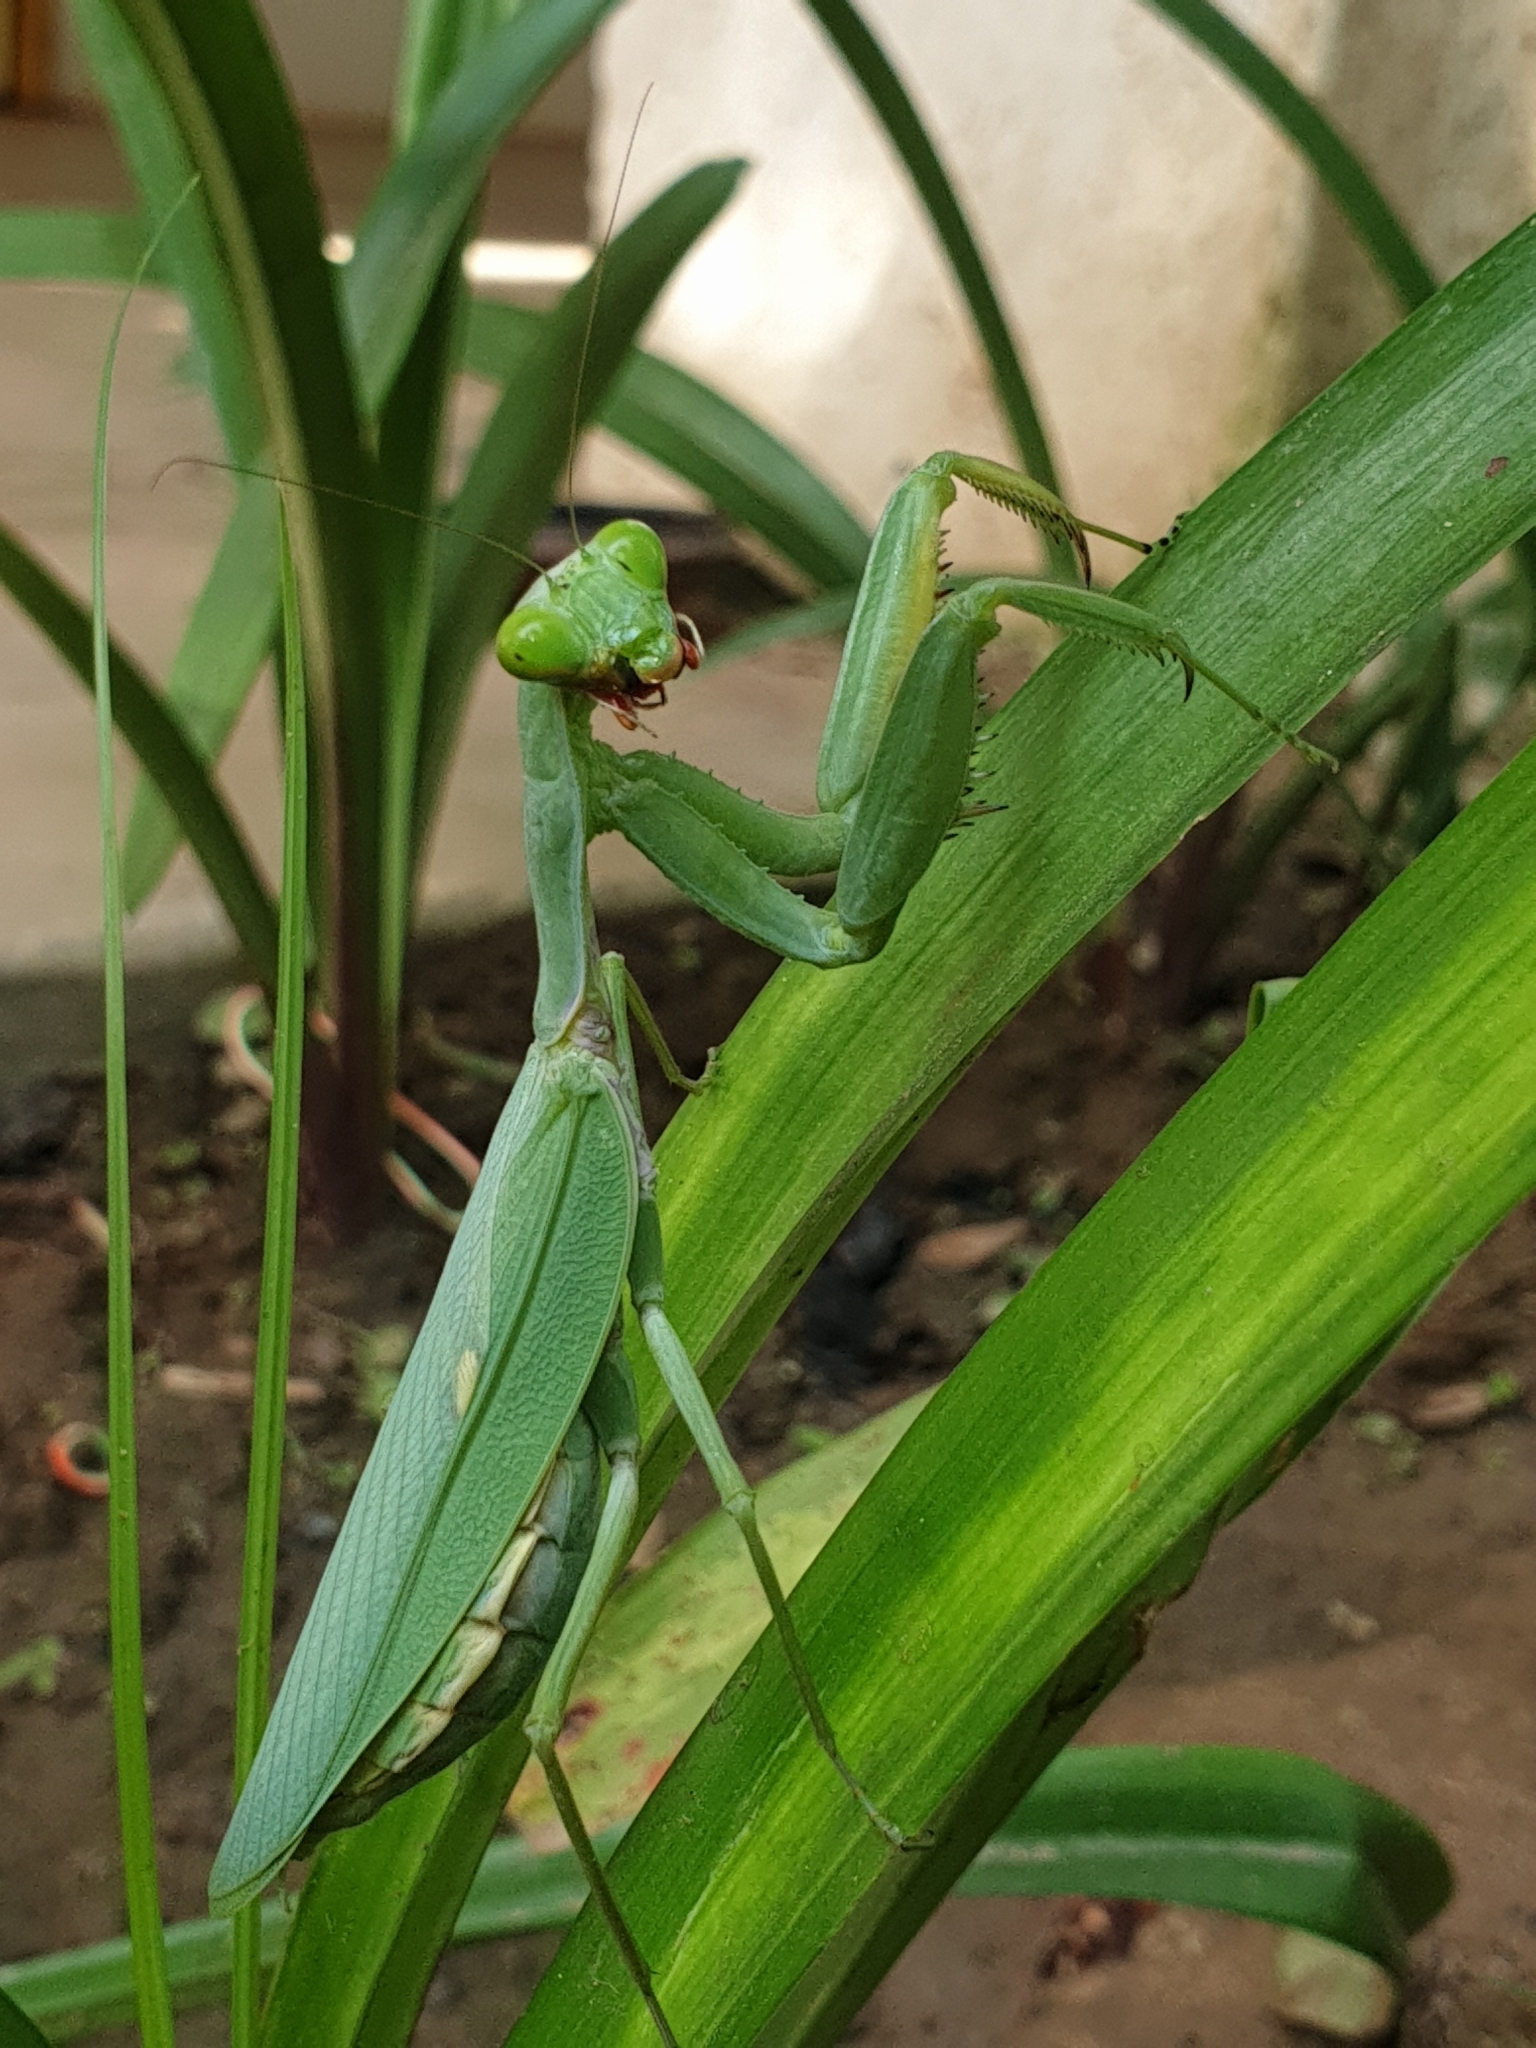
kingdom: Animalia
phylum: Arthropoda
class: Insecta
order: Mantodea
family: Mantidae
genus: Hierodula
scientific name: Hierodula tenuidentata
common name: Giant asian mantis
